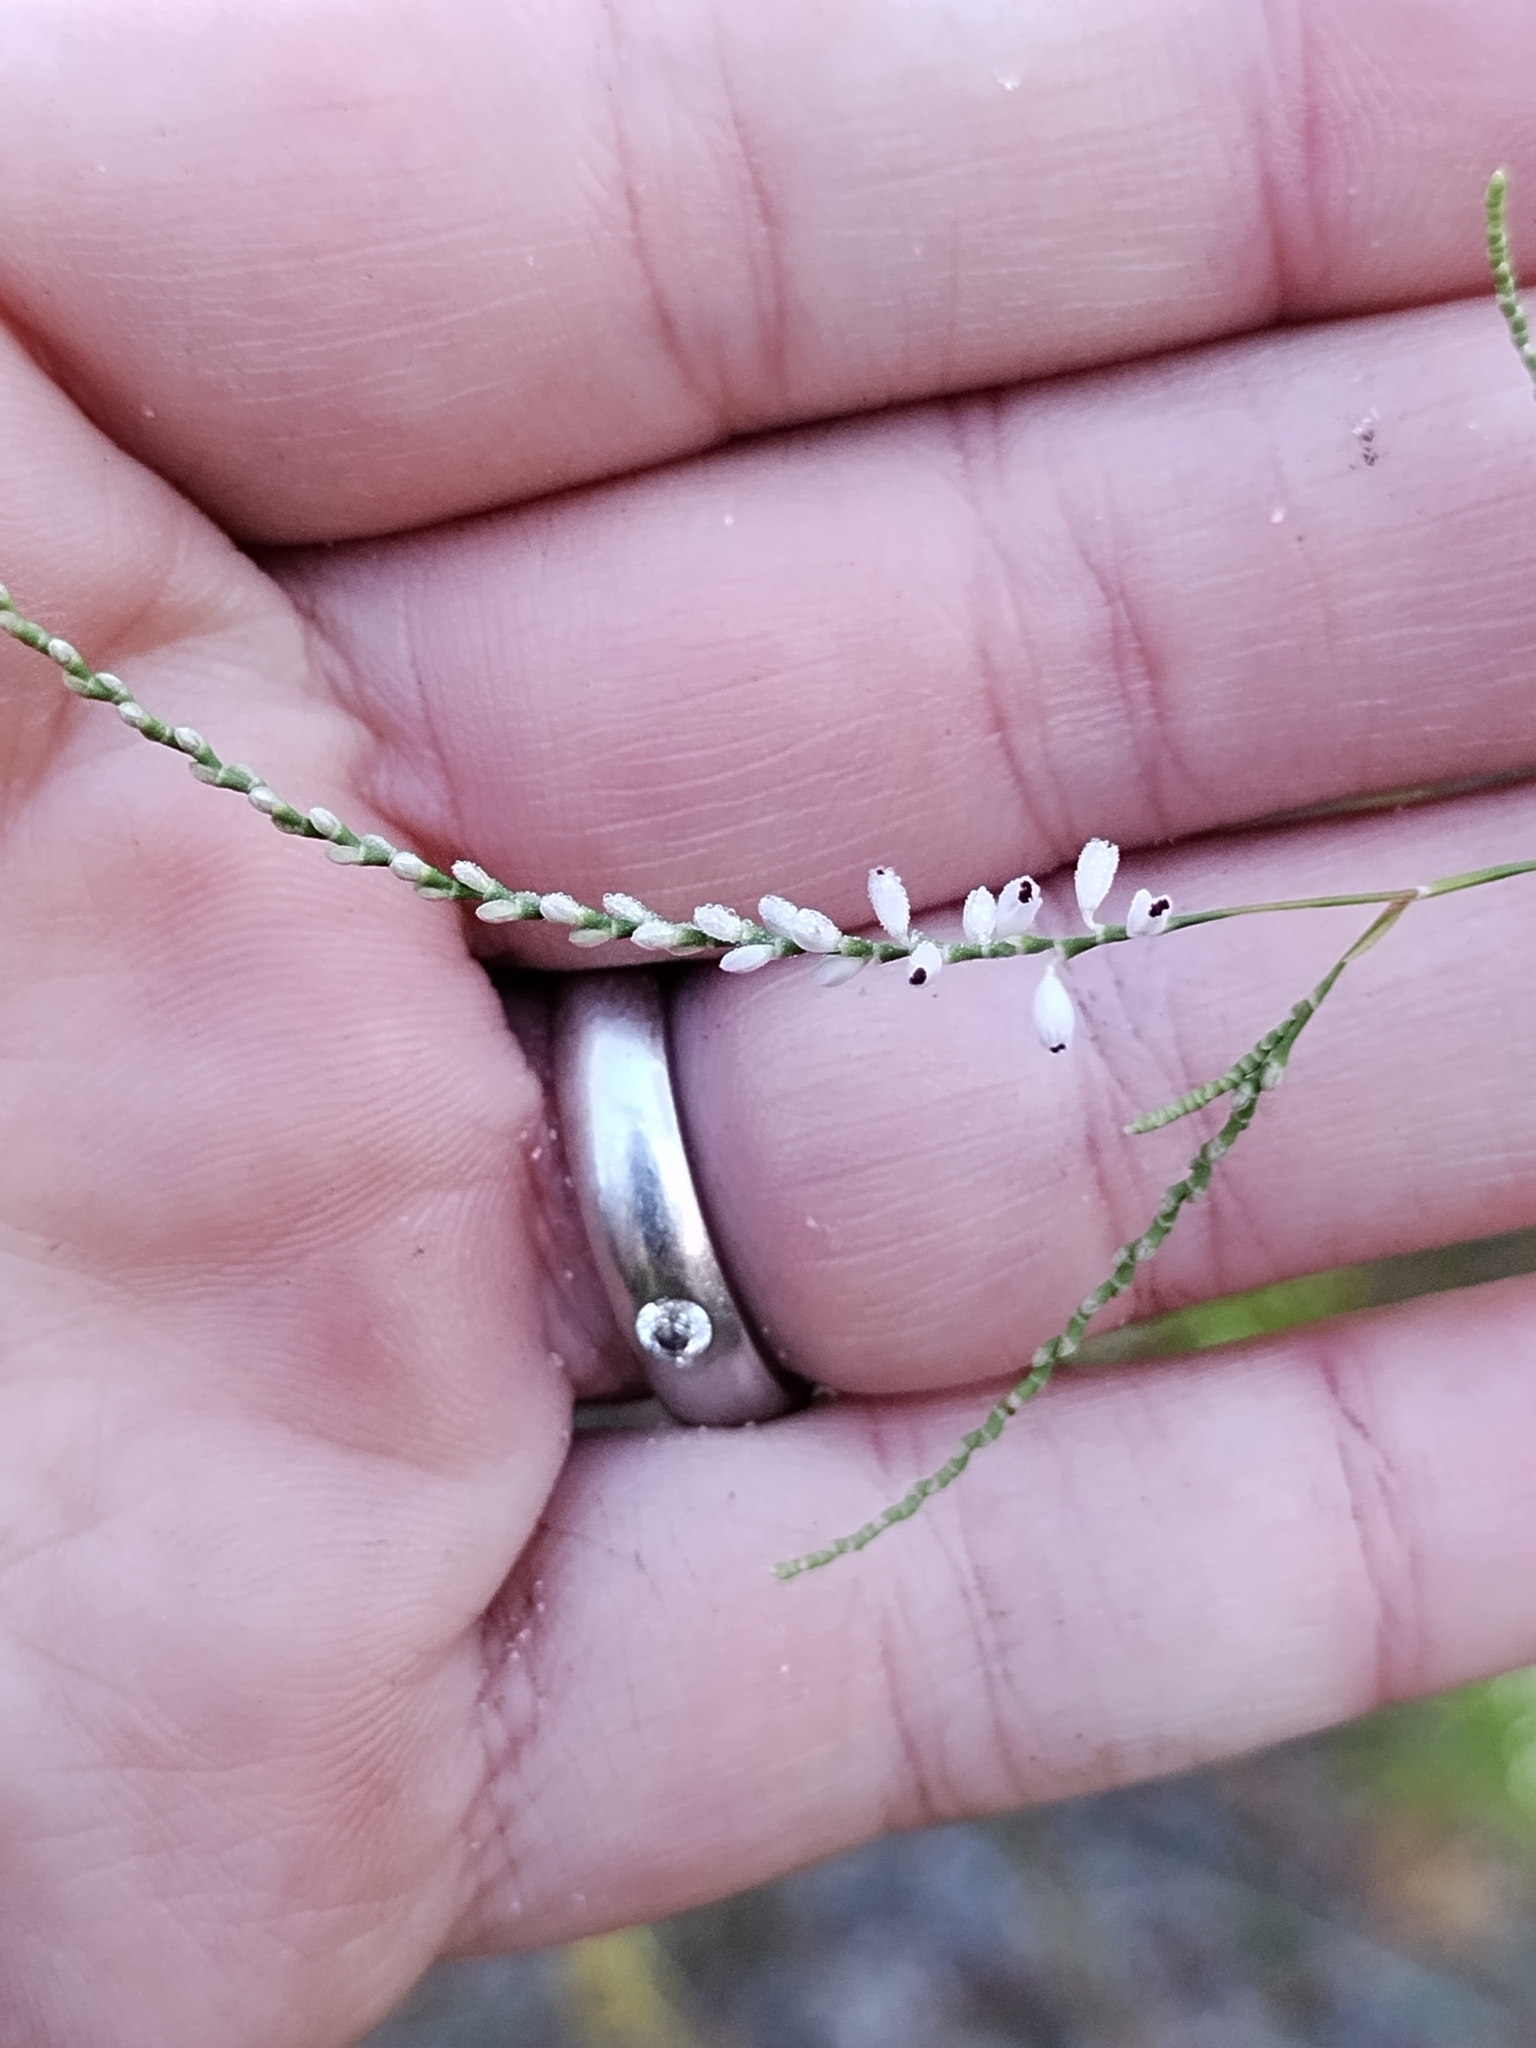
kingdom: Plantae
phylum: Tracheophyta
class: Magnoliopsida
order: Caryophyllales
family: Polygonaceae
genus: Polygonella
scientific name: Polygonella gracilis
